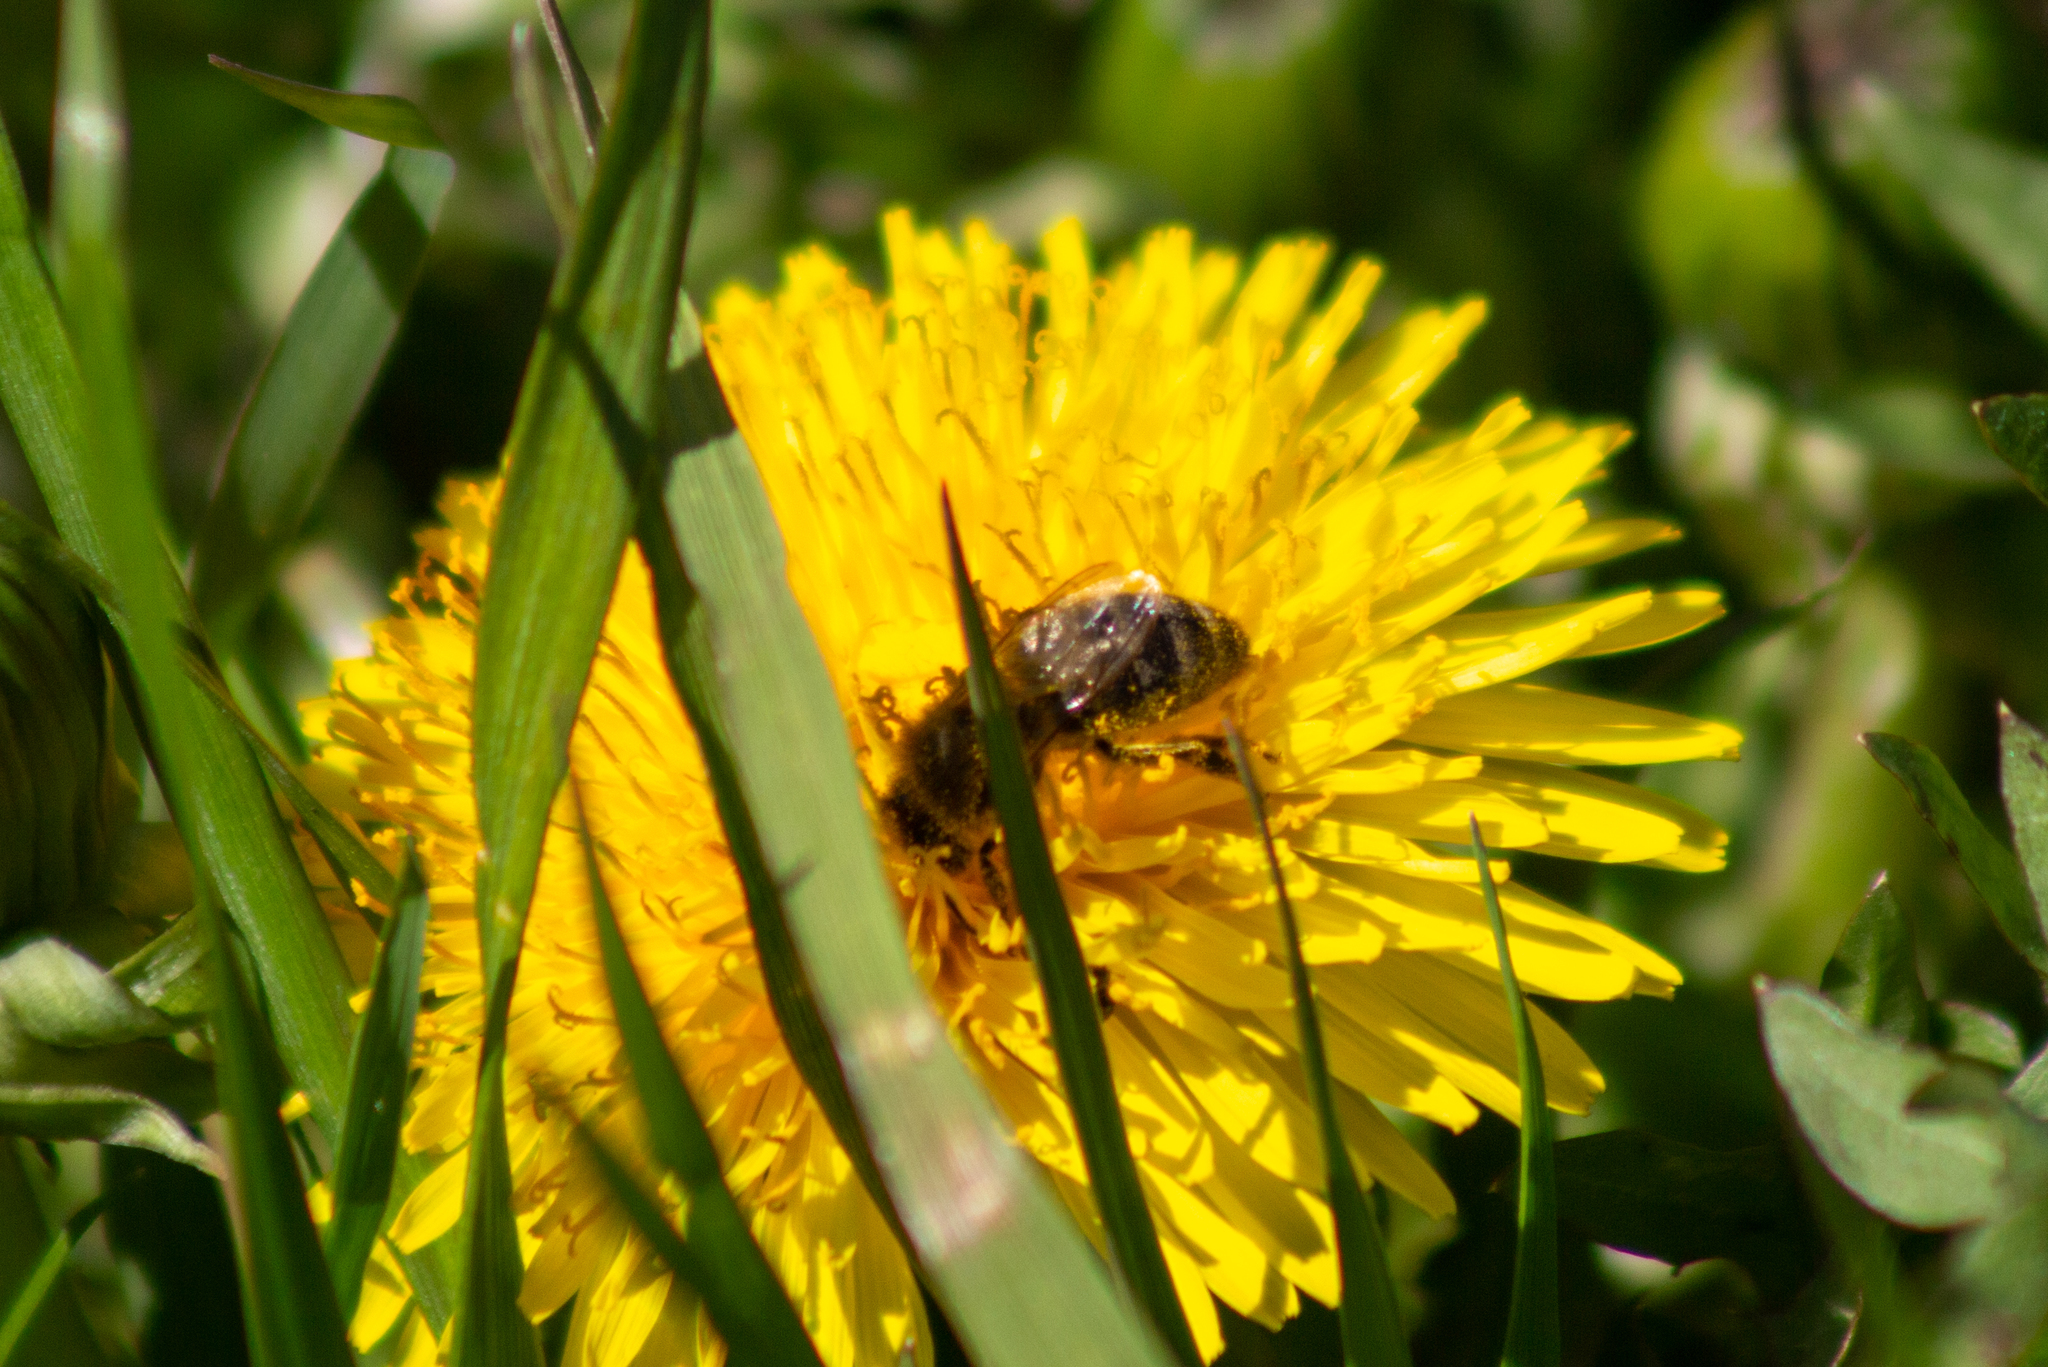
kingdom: Animalia
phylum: Arthropoda
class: Insecta
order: Hymenoptera
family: Apidae
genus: Apis
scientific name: Apis mellifera
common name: Honey bee
